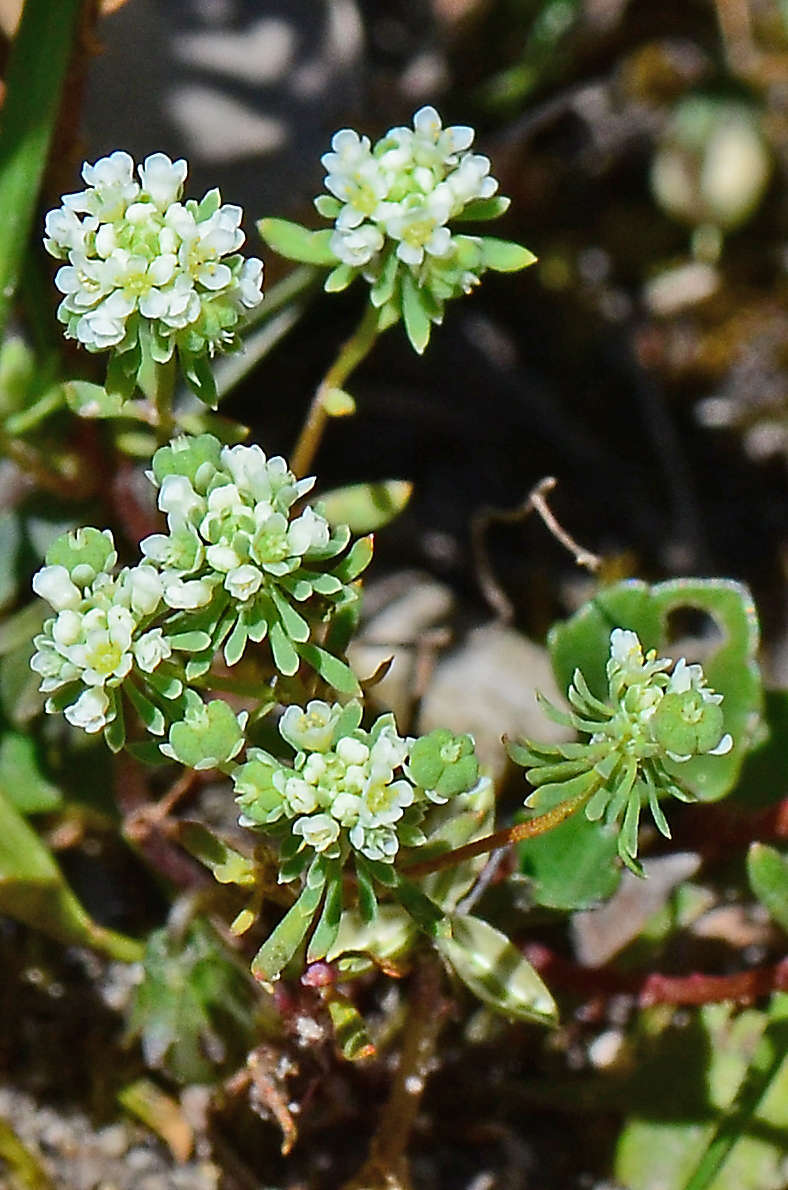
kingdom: Plantae
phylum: Tracheophyta
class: Magnoliopsida
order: Malpighiales
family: Phyllanthaceae
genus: Poranthera
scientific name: Poranthera microphylla
